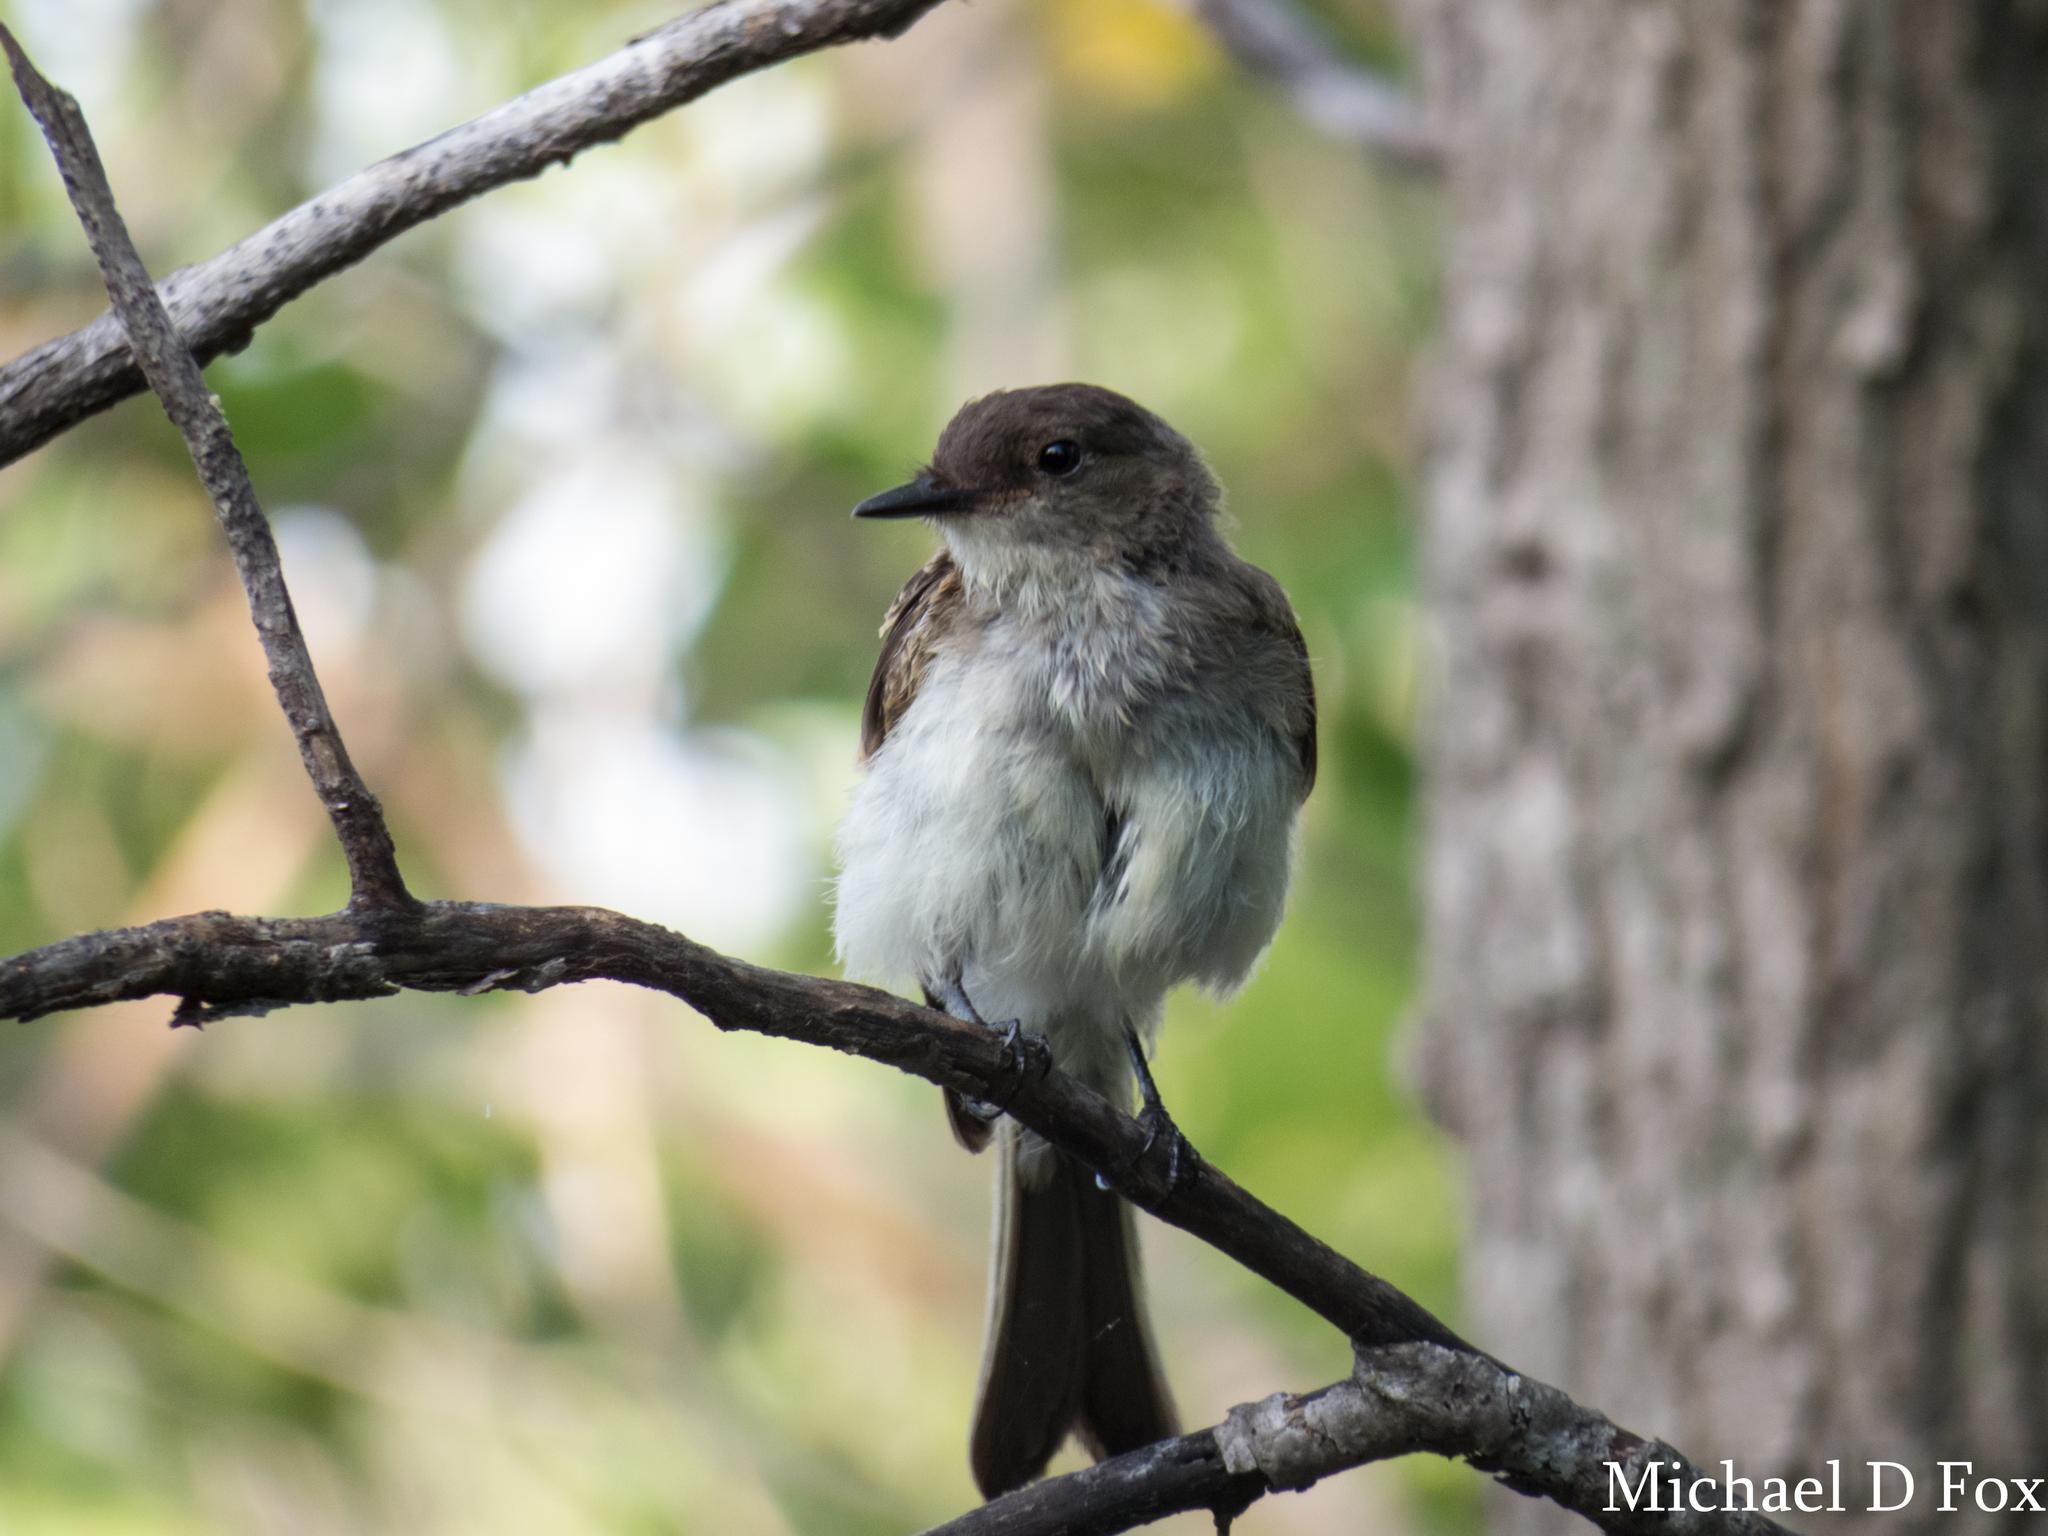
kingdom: Animalia
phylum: Chordata
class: Aves
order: Passeriformes
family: Tyrannidae
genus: Sayornis
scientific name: Sayornis phoebe
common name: Eastern phoebe
